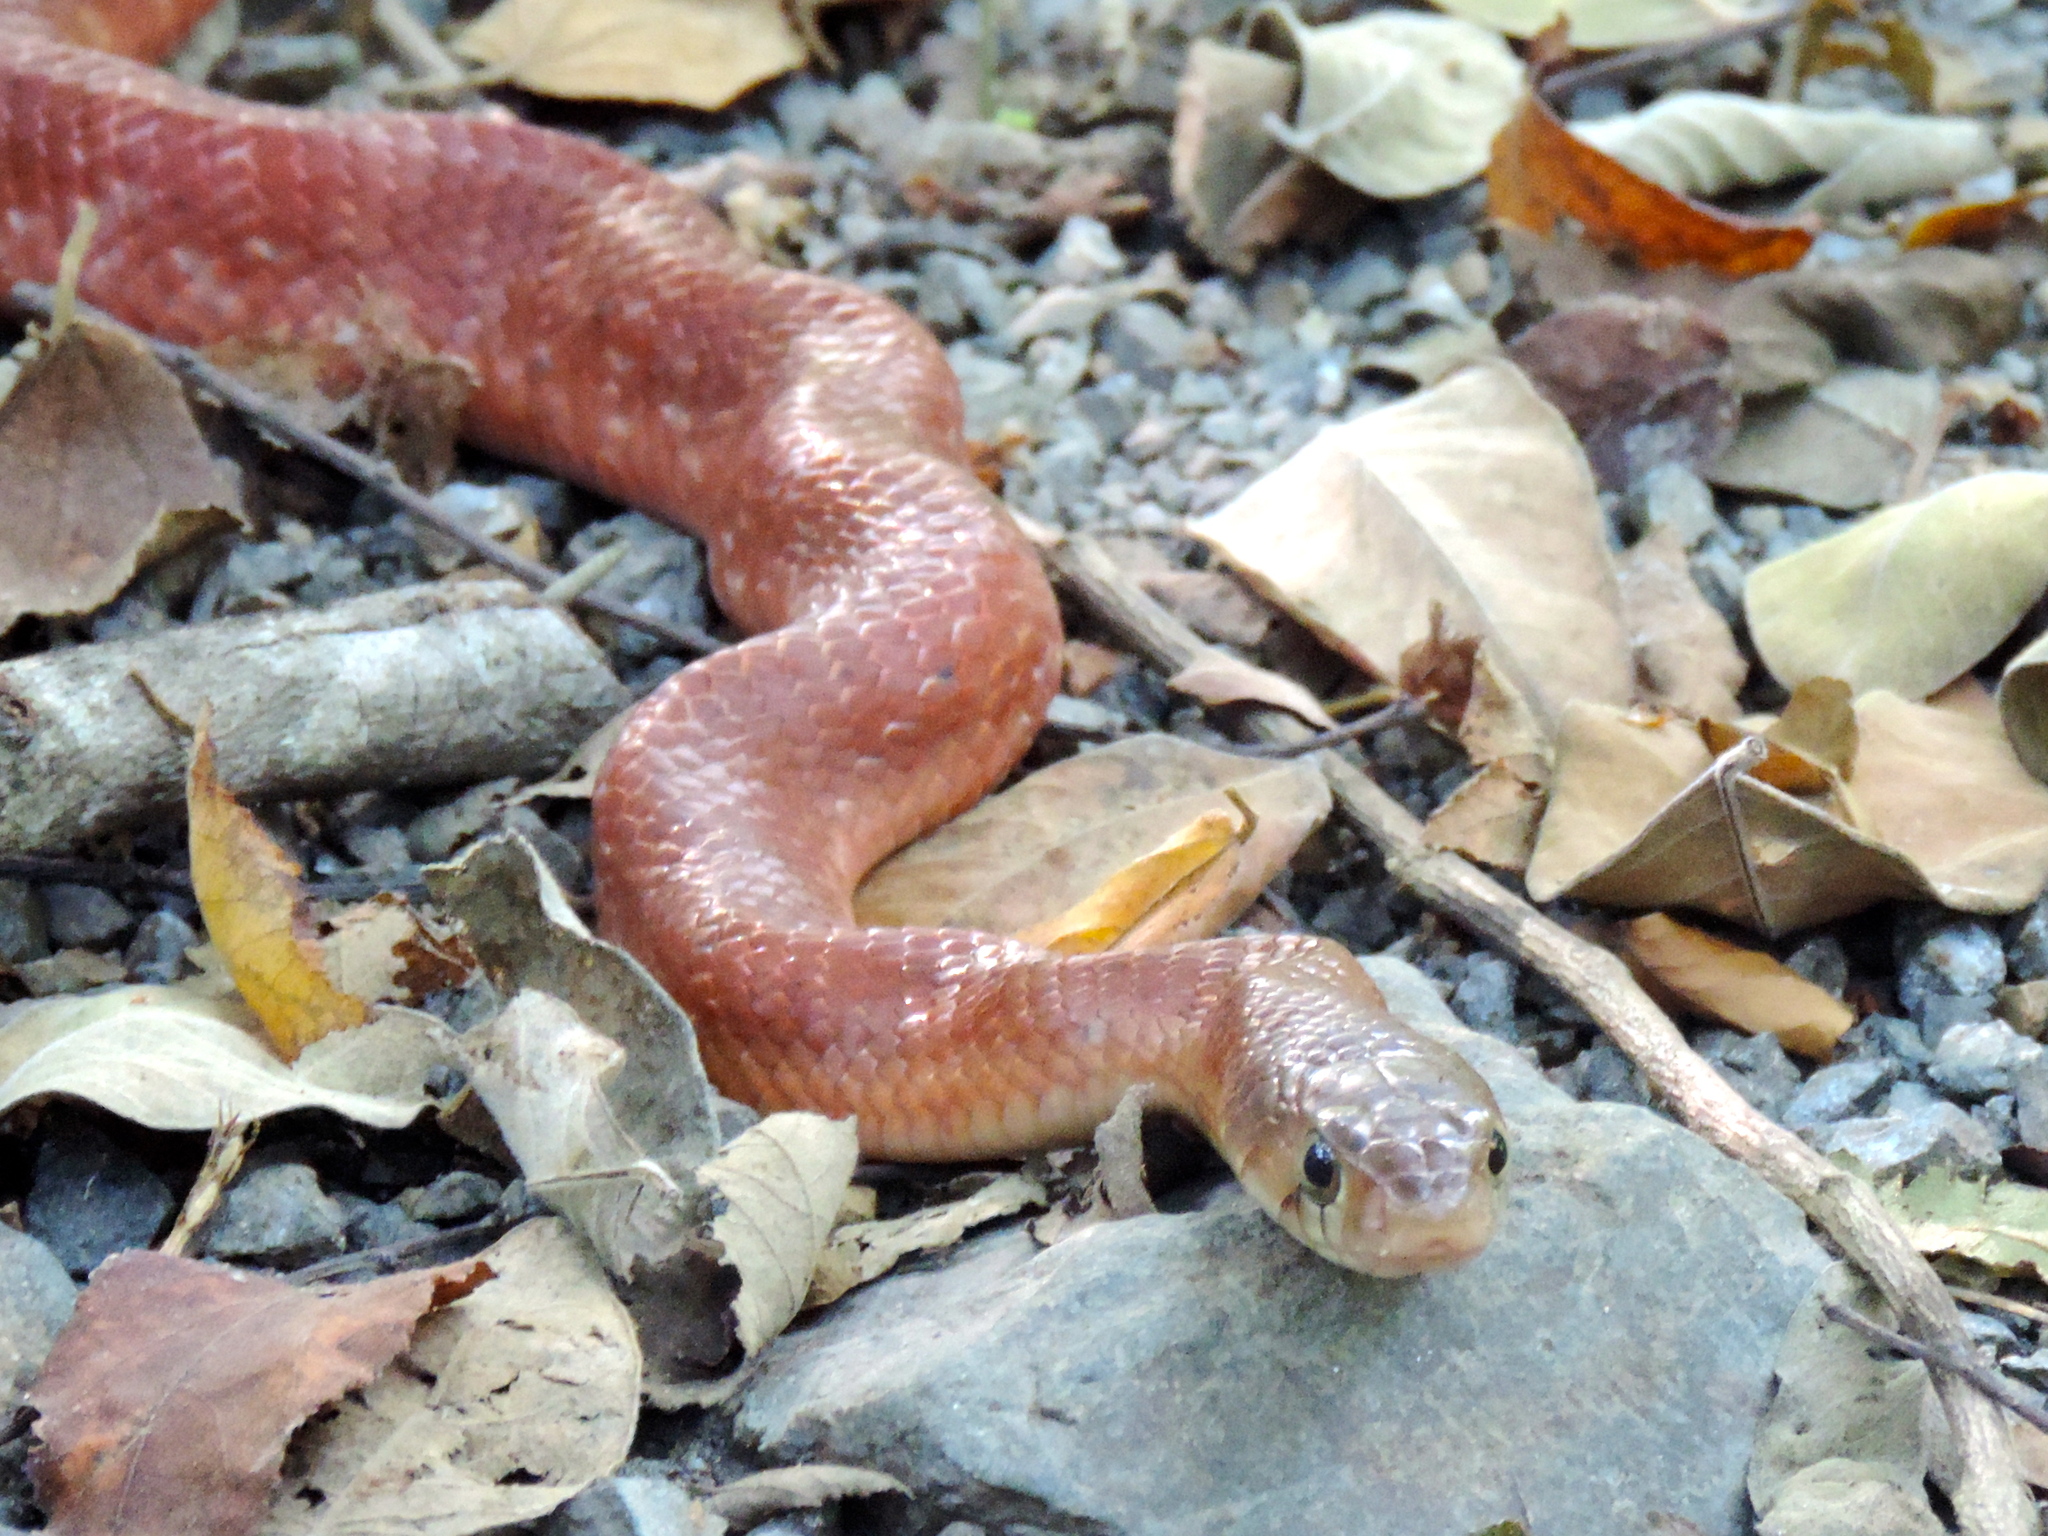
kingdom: Animalia
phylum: Chordata
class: Squamata
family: Colubridae
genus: Drymarchon
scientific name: Drymarchon melanurus
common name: Central american indigo snake
